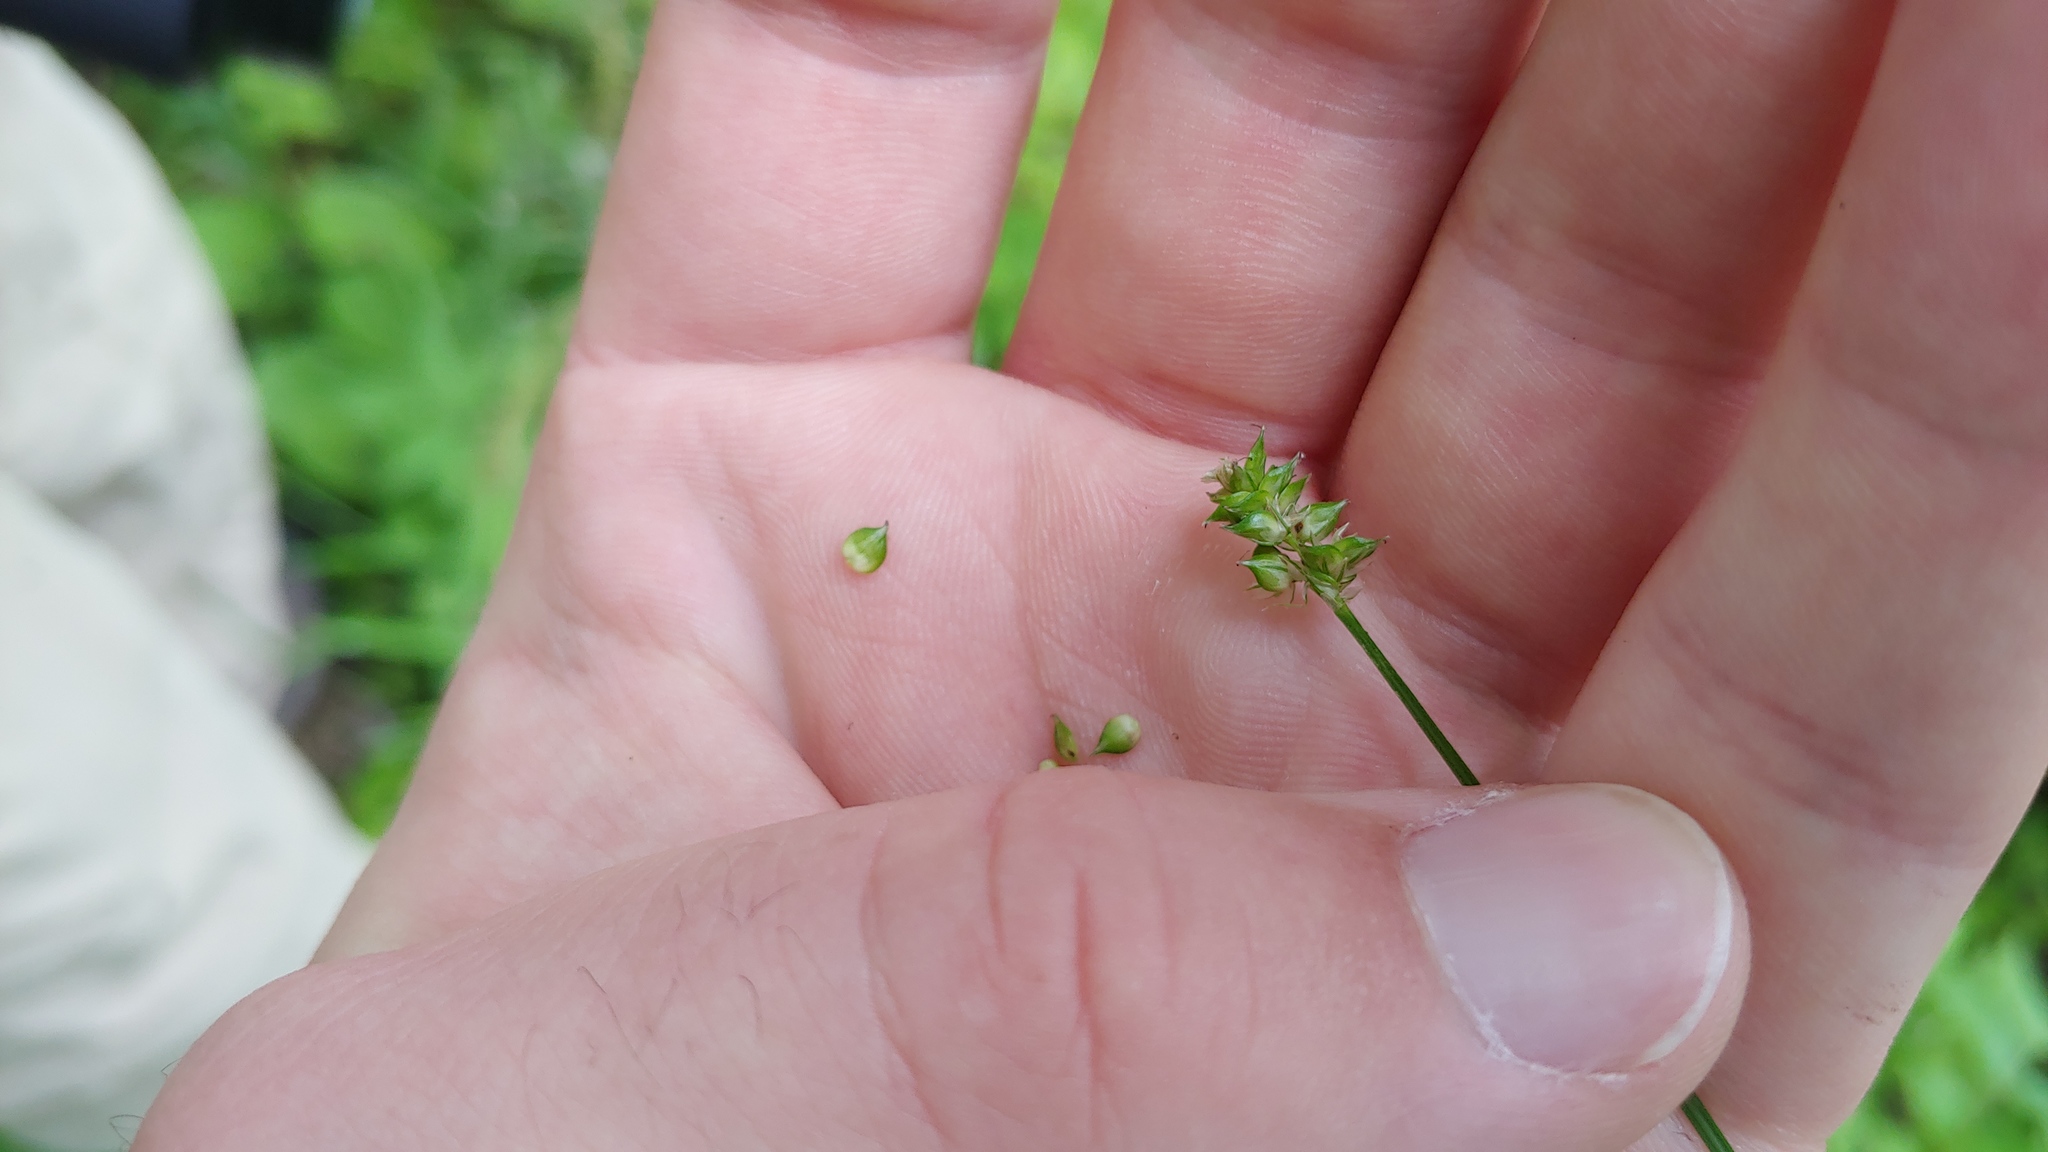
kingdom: Plantae
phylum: Tracheophyta
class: Liliopsida
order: Poales
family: Cyperaceae
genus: Carex
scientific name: Carex leavenworthii
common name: Leavenworth's bracted sedge
